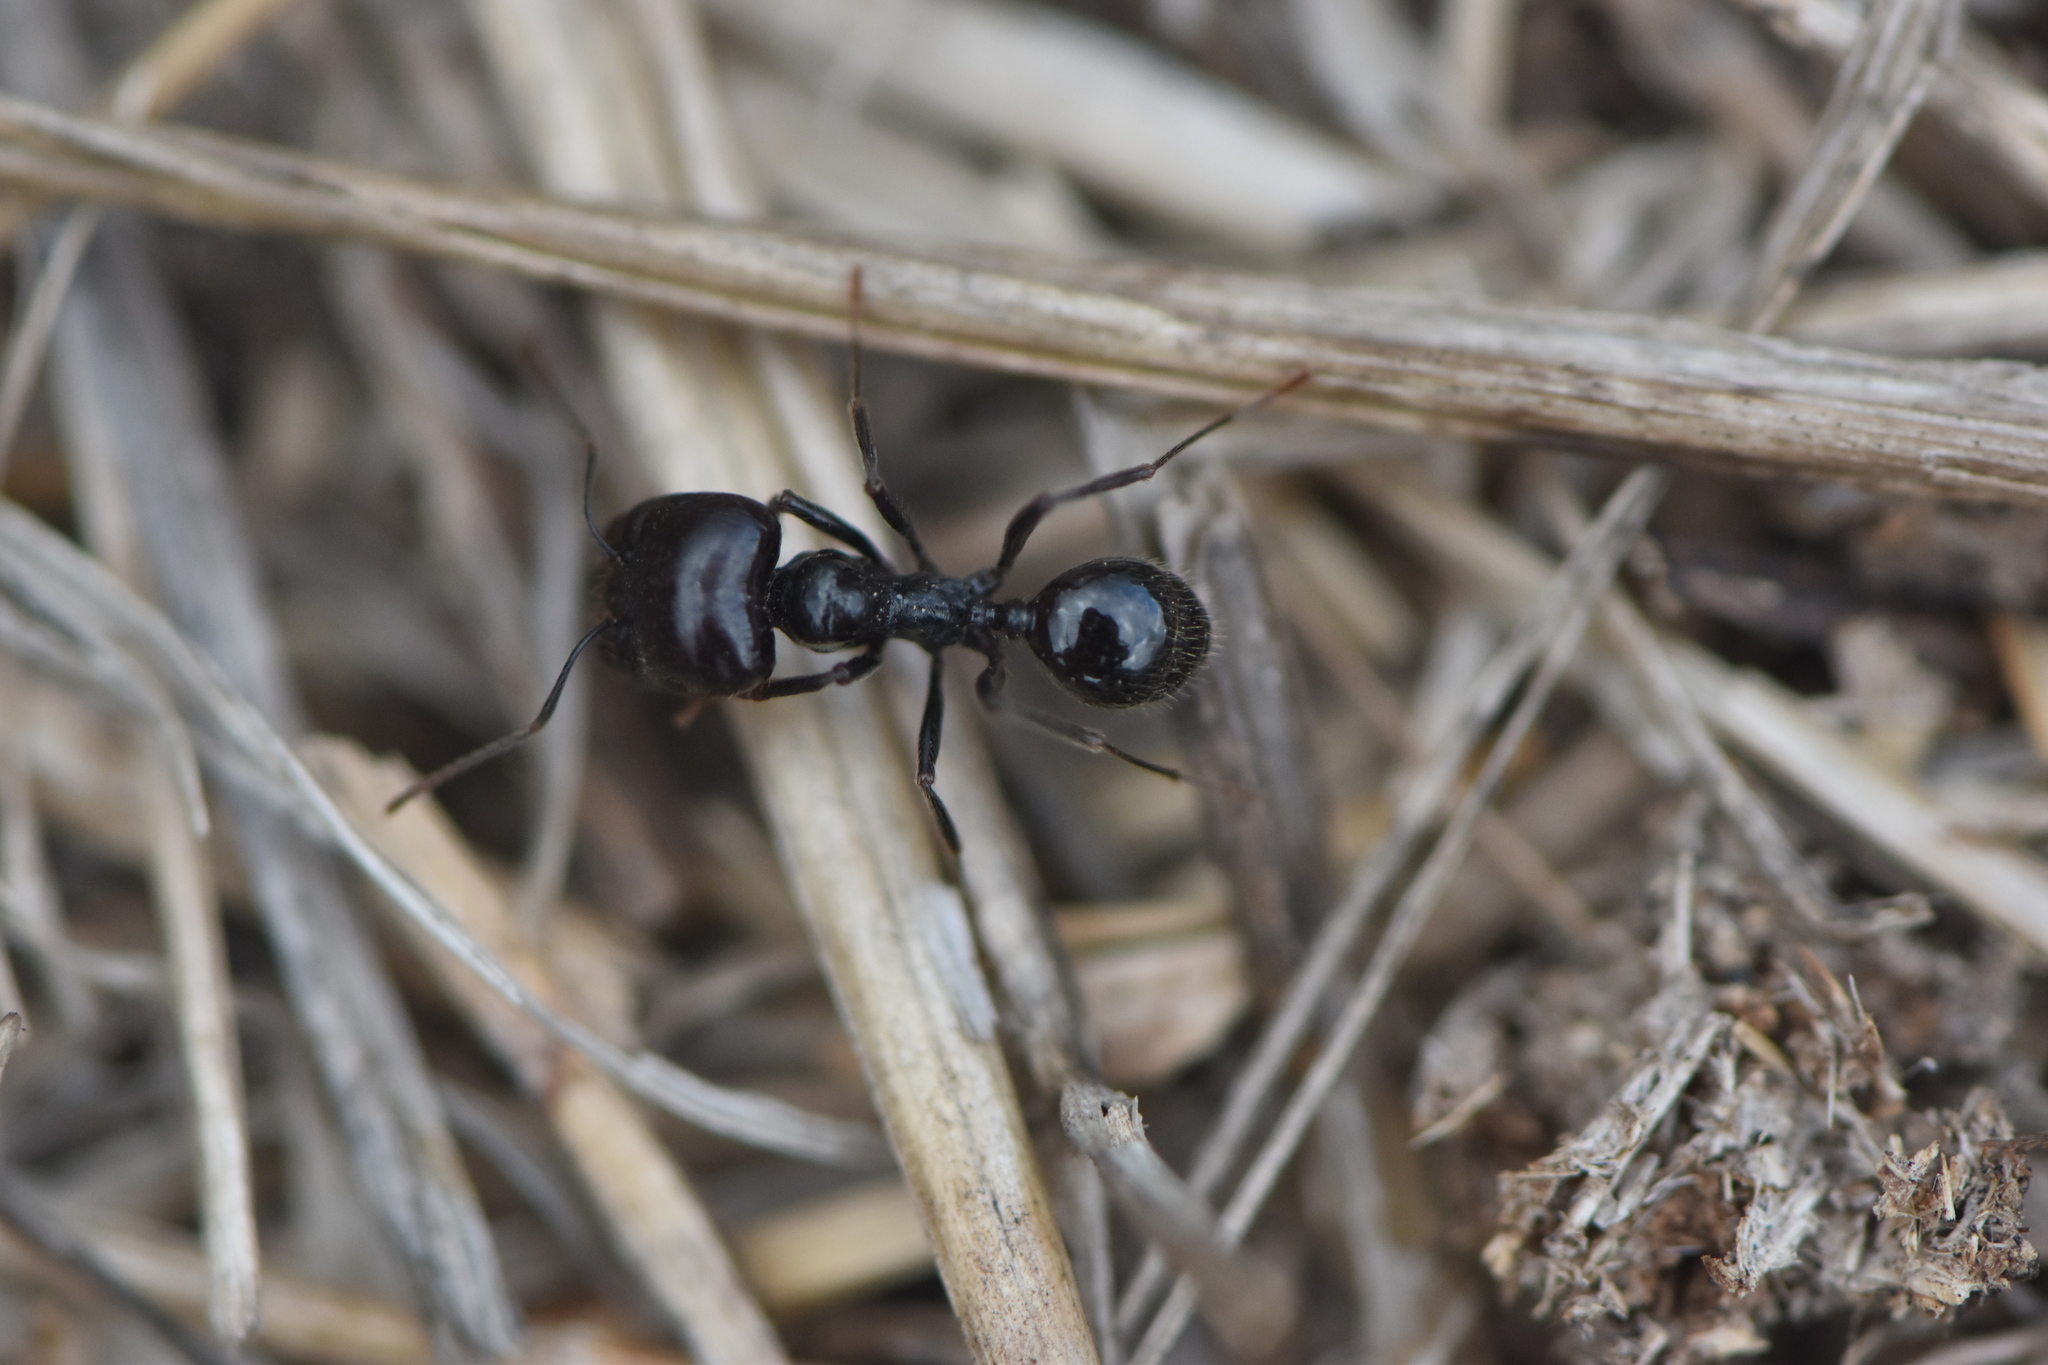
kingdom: Animalia
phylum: Arthropoda
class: Insecta
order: Hymenoptera
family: Formicidae
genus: Messor
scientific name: Messor barbarus
